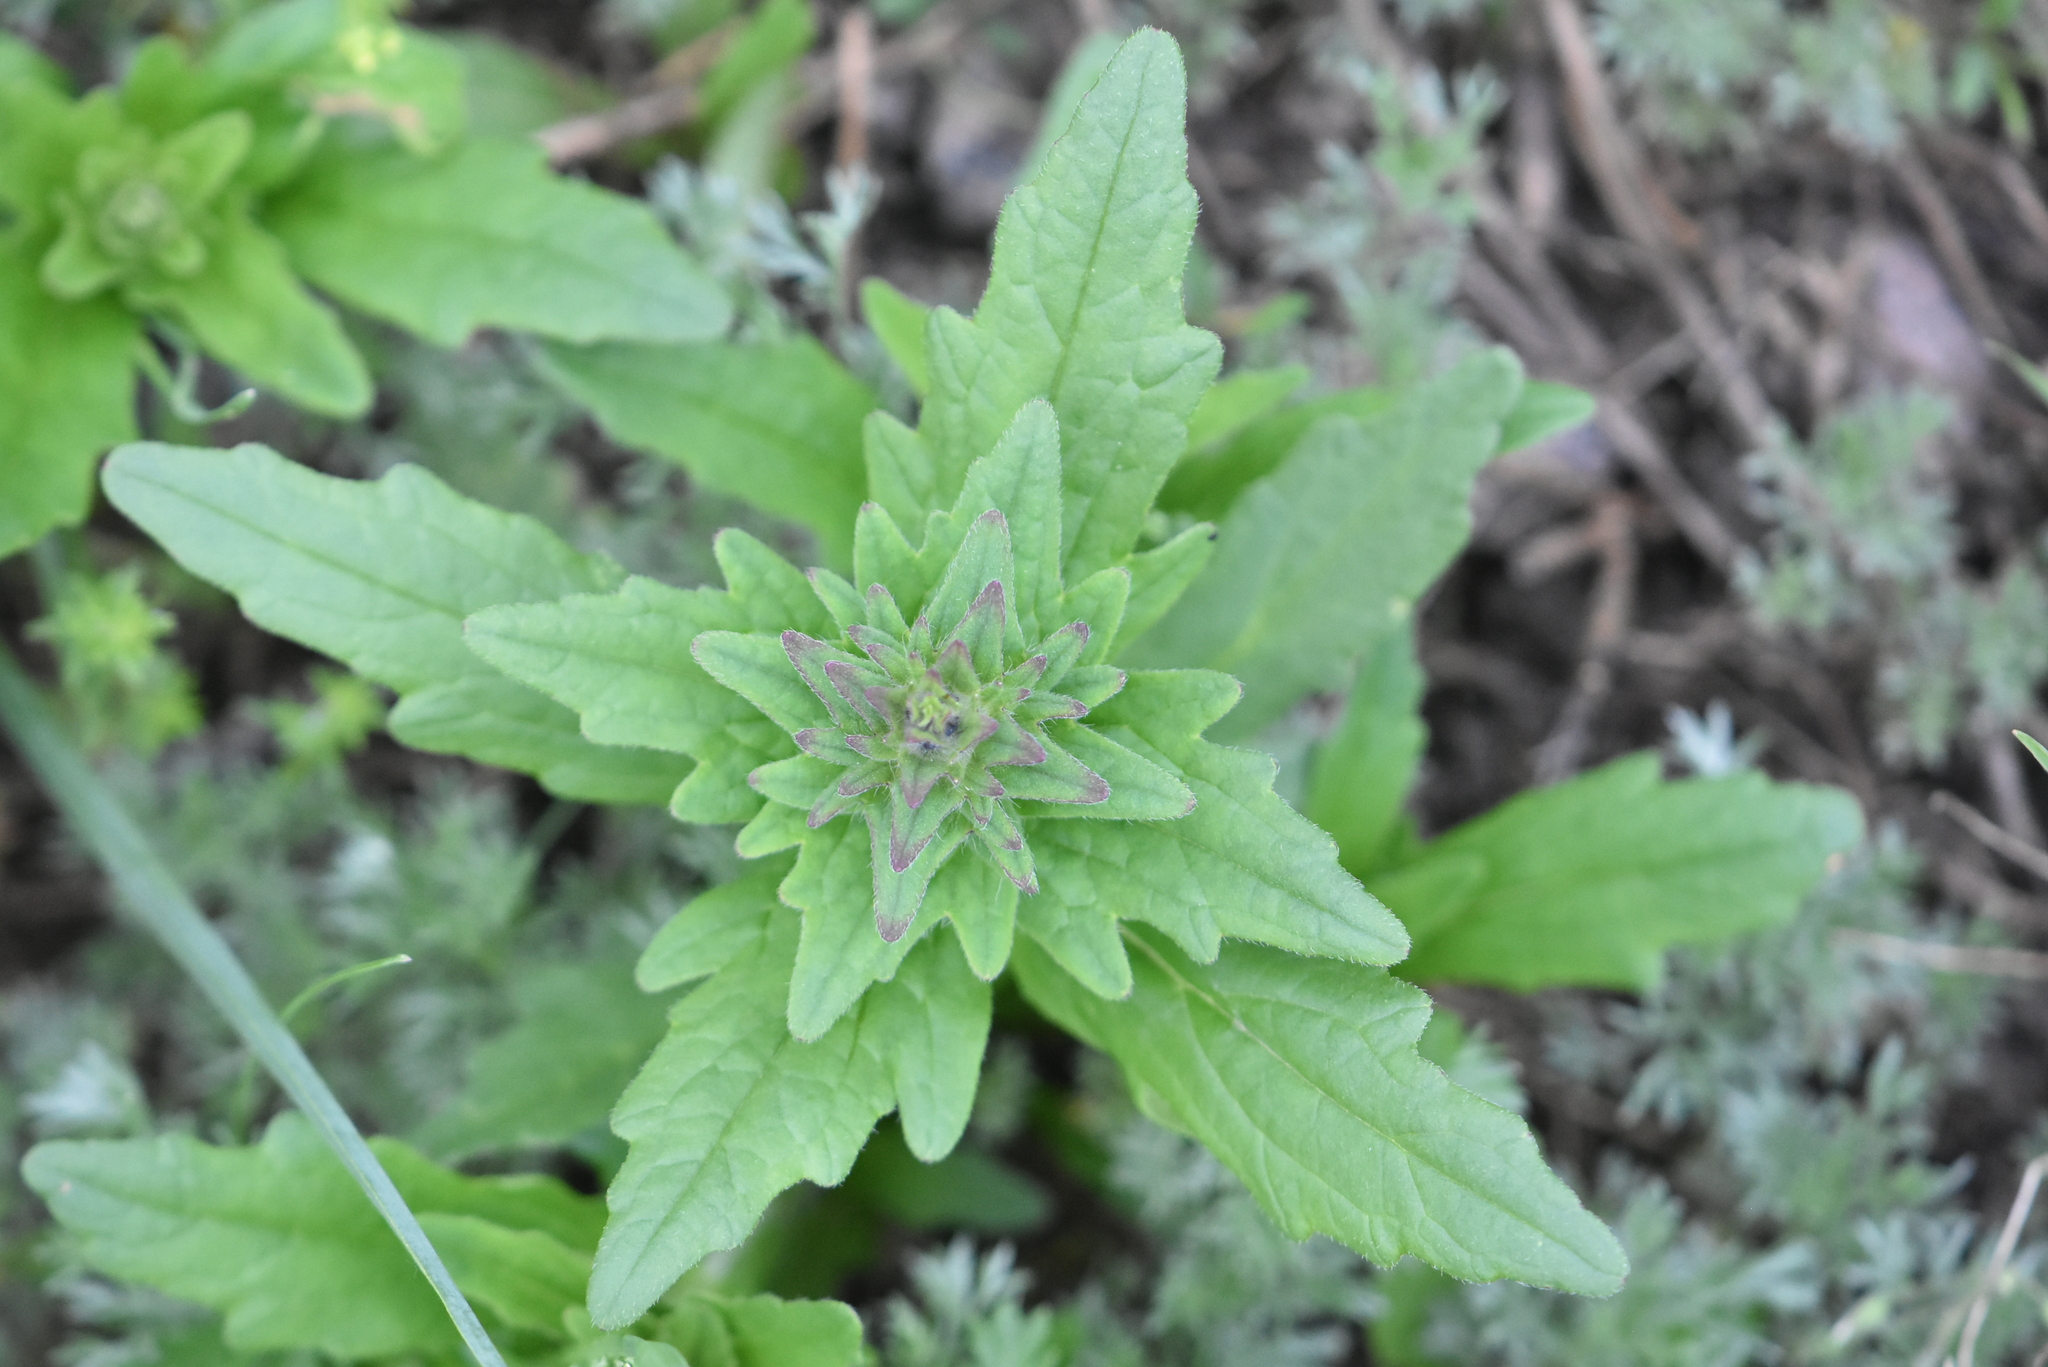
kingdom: Plantae
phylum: Tracheophyta
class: Magnoliopsida
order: Lamiales
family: Lamiaceae
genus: Ajuga
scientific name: Ajuga genevensis
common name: Blue bugle
